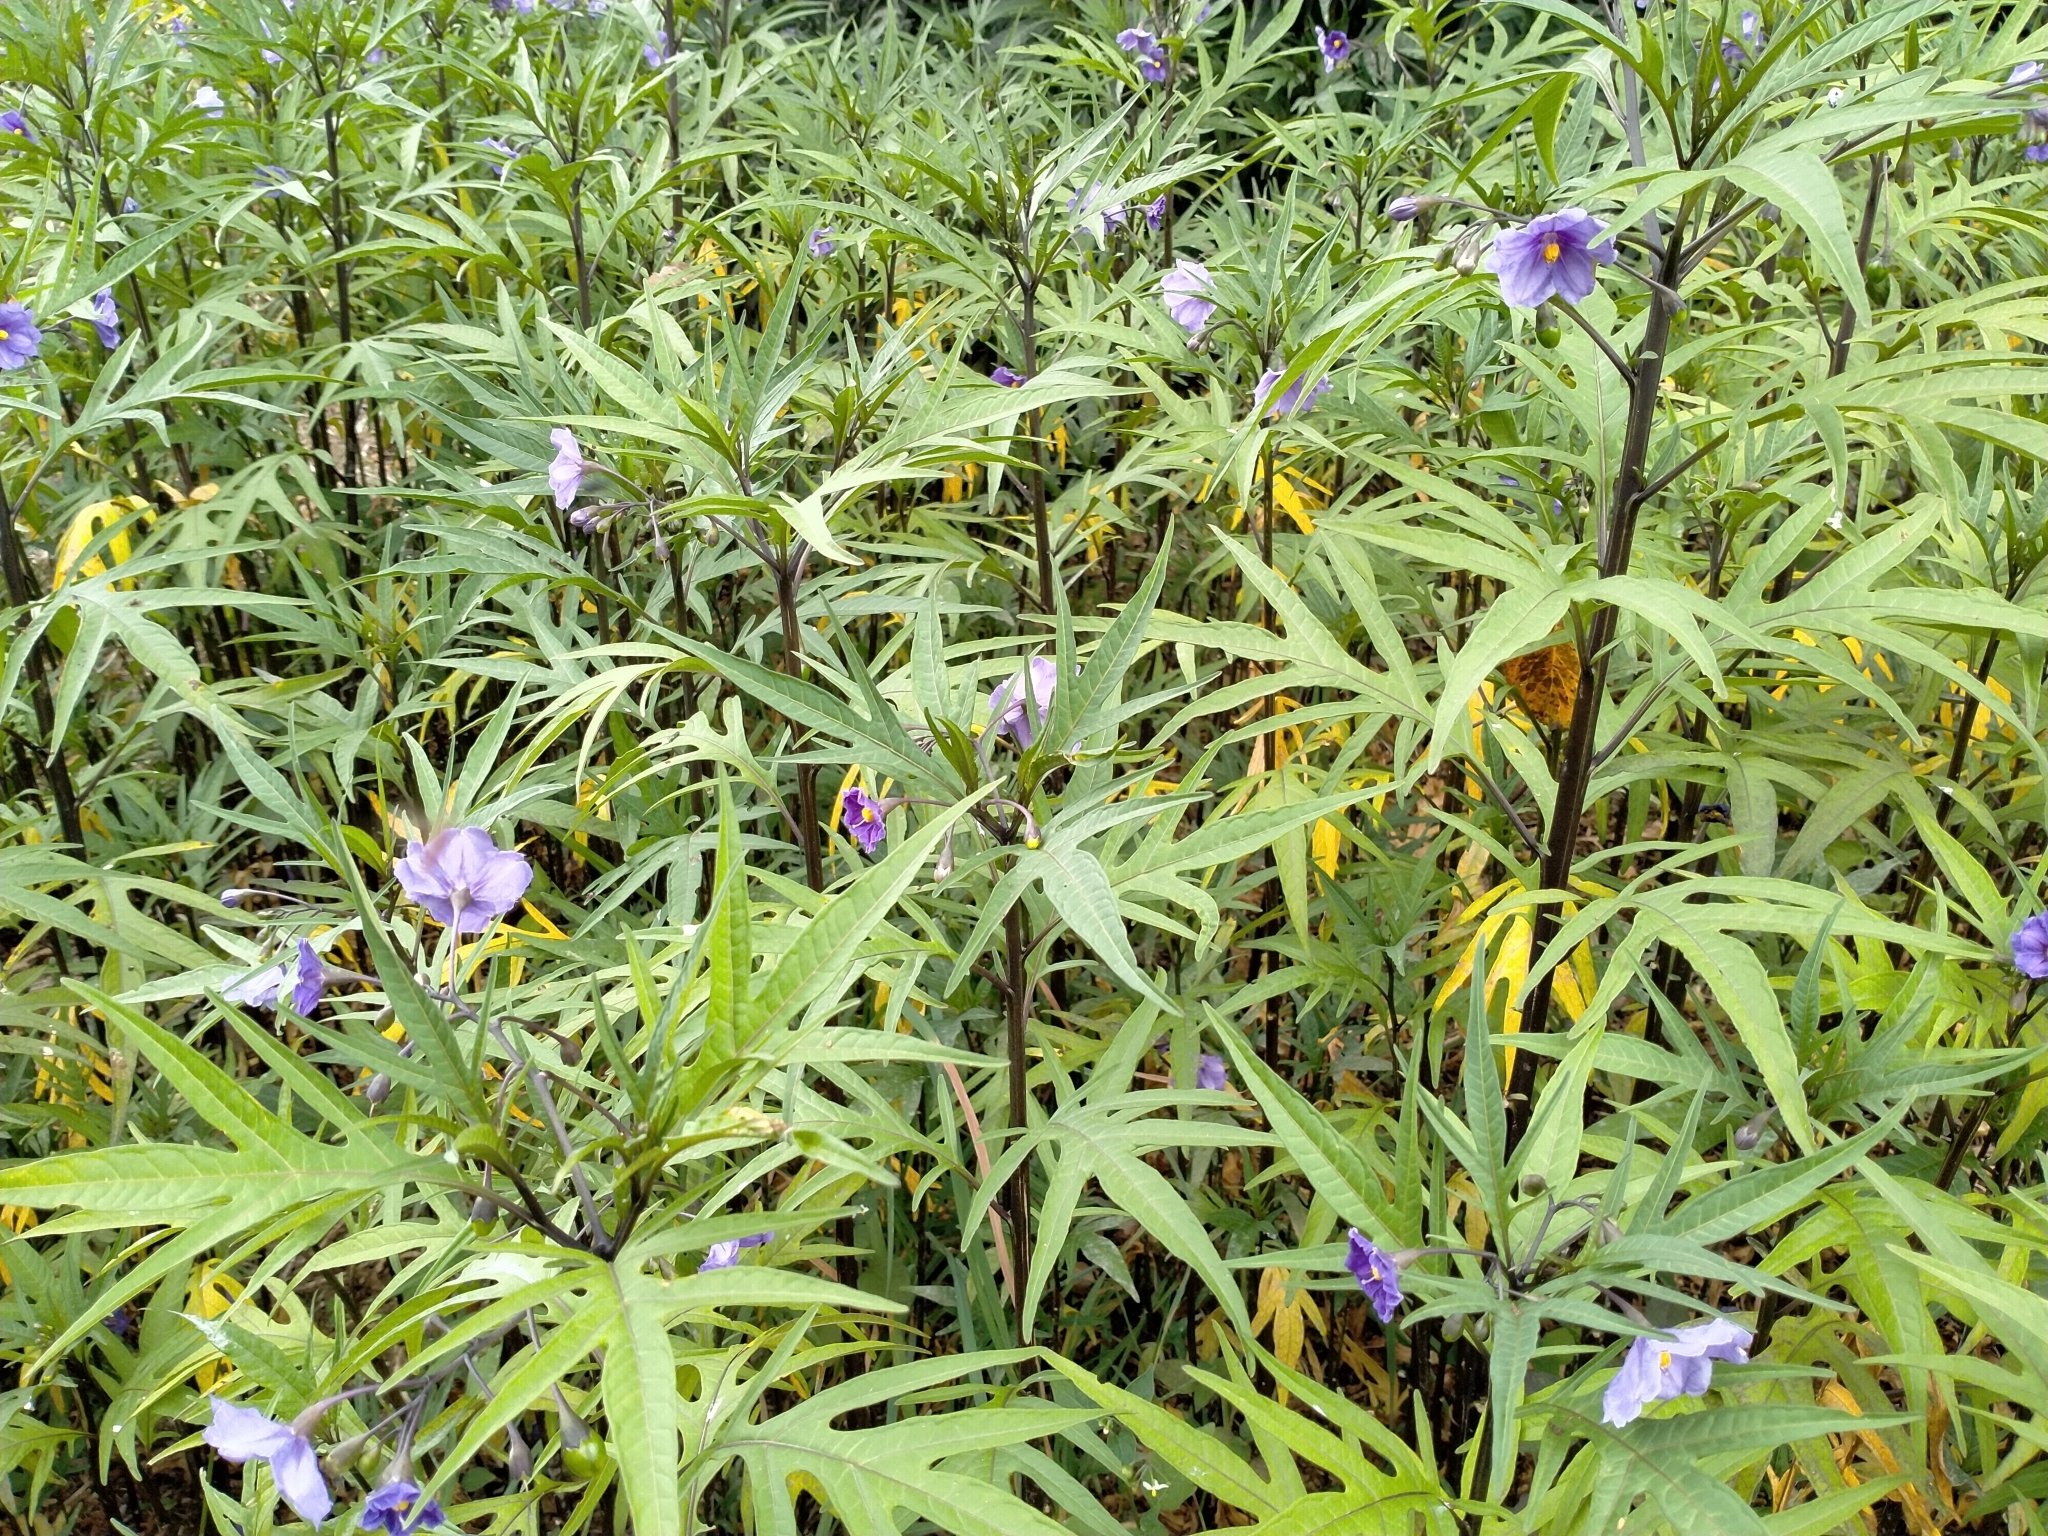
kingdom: Plantae
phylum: Tracheophyta
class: Magnoliopsida
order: Solanales
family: Solanaceae
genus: Solanum
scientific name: Solanum laciniatum
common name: Kangaroo-apple
